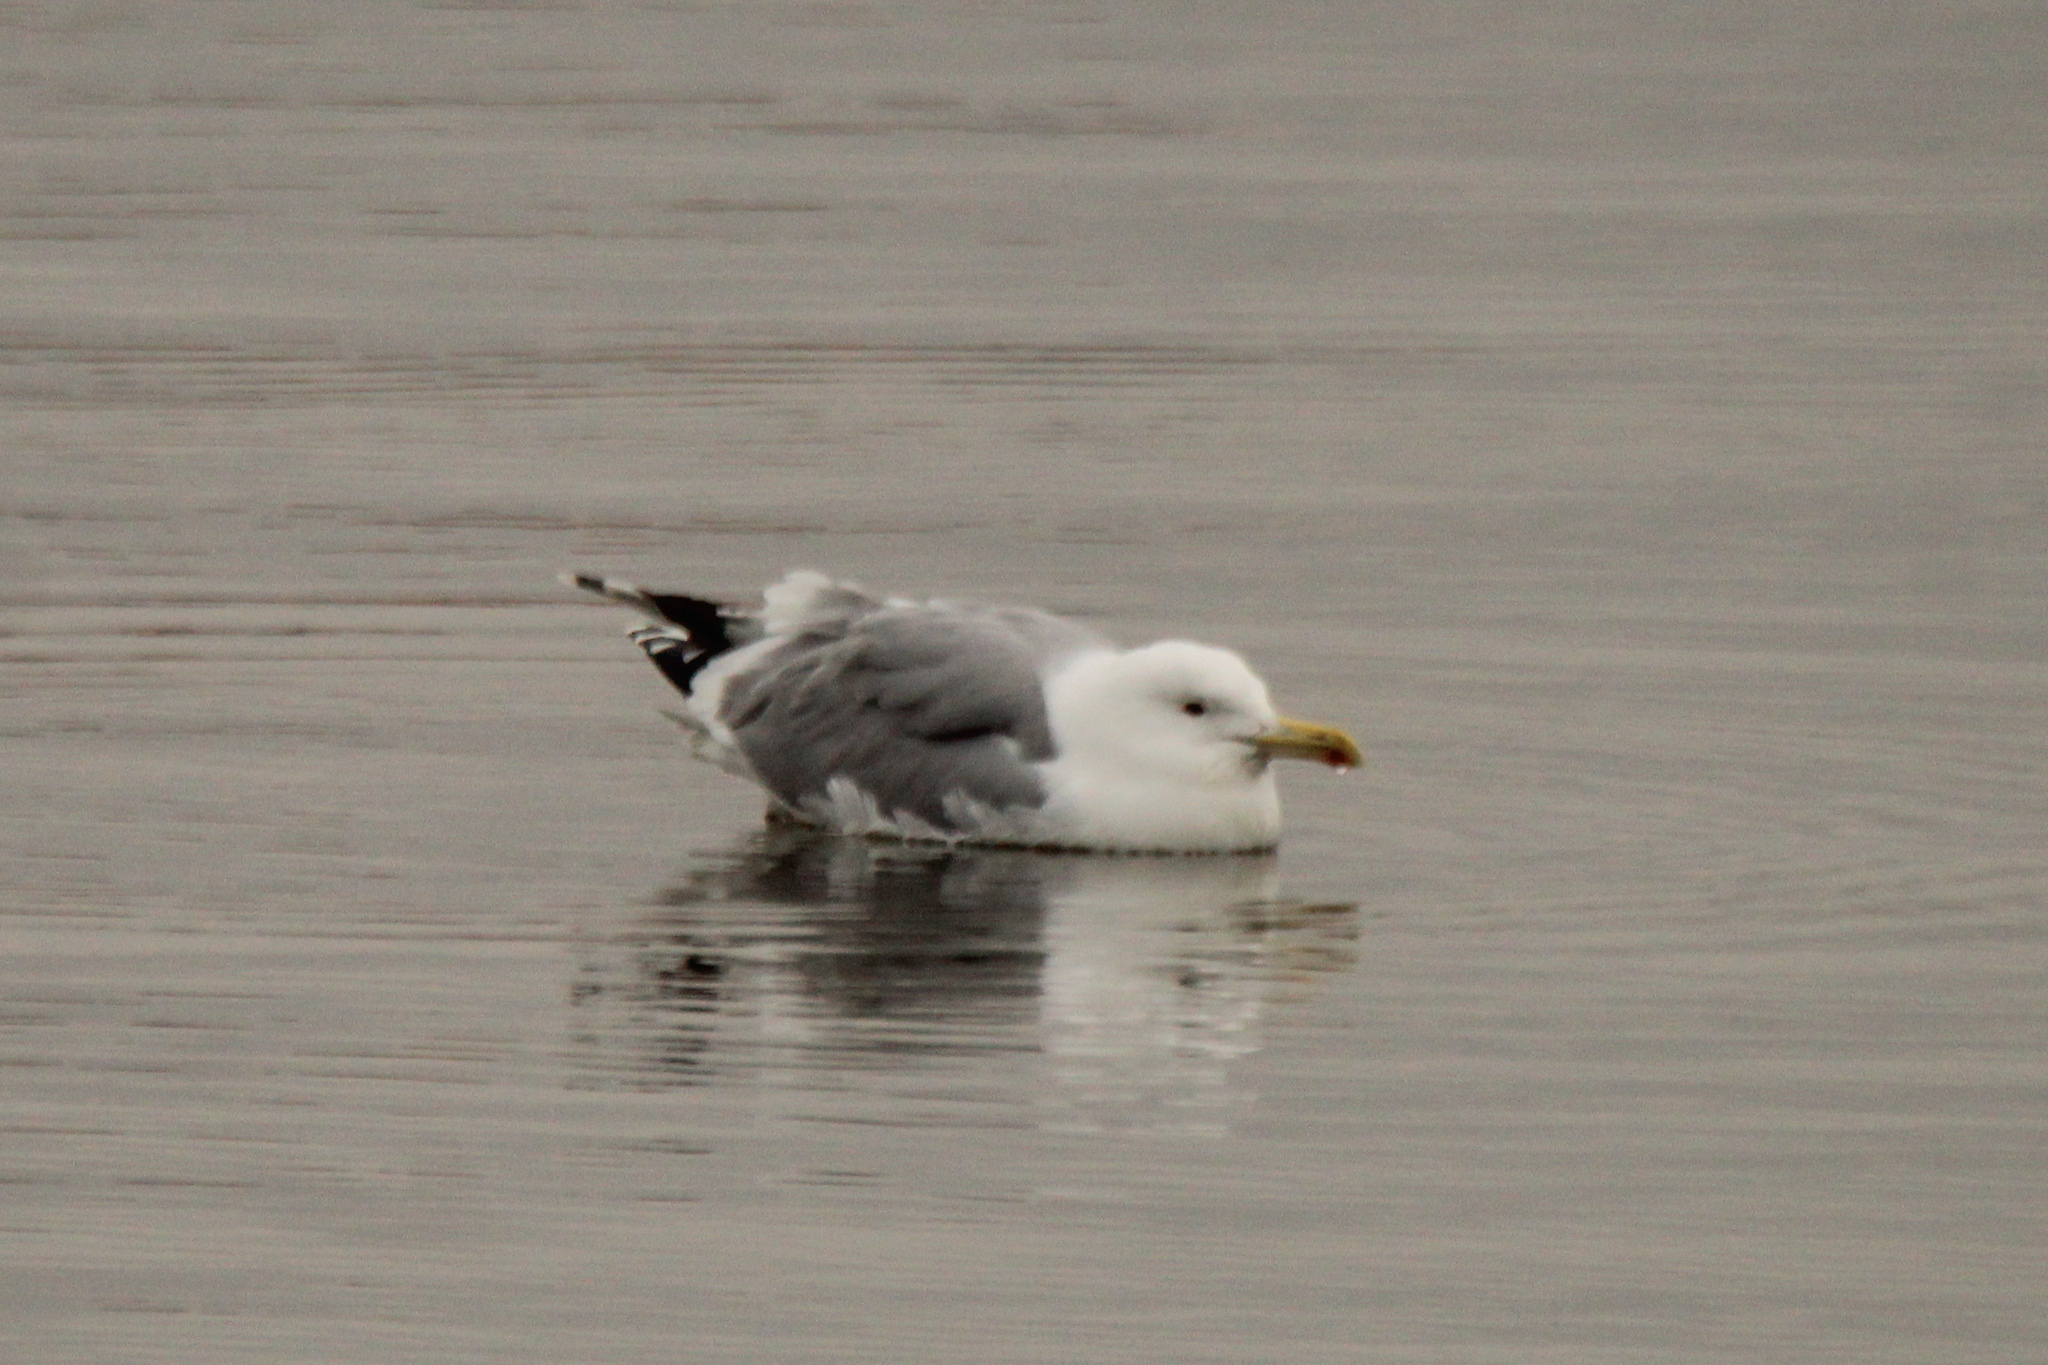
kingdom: Animalia
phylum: Chordata
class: Aves
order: Charadriiformes
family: Laridae
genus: Larus
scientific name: Larus cachinnans
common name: Caspian gull
